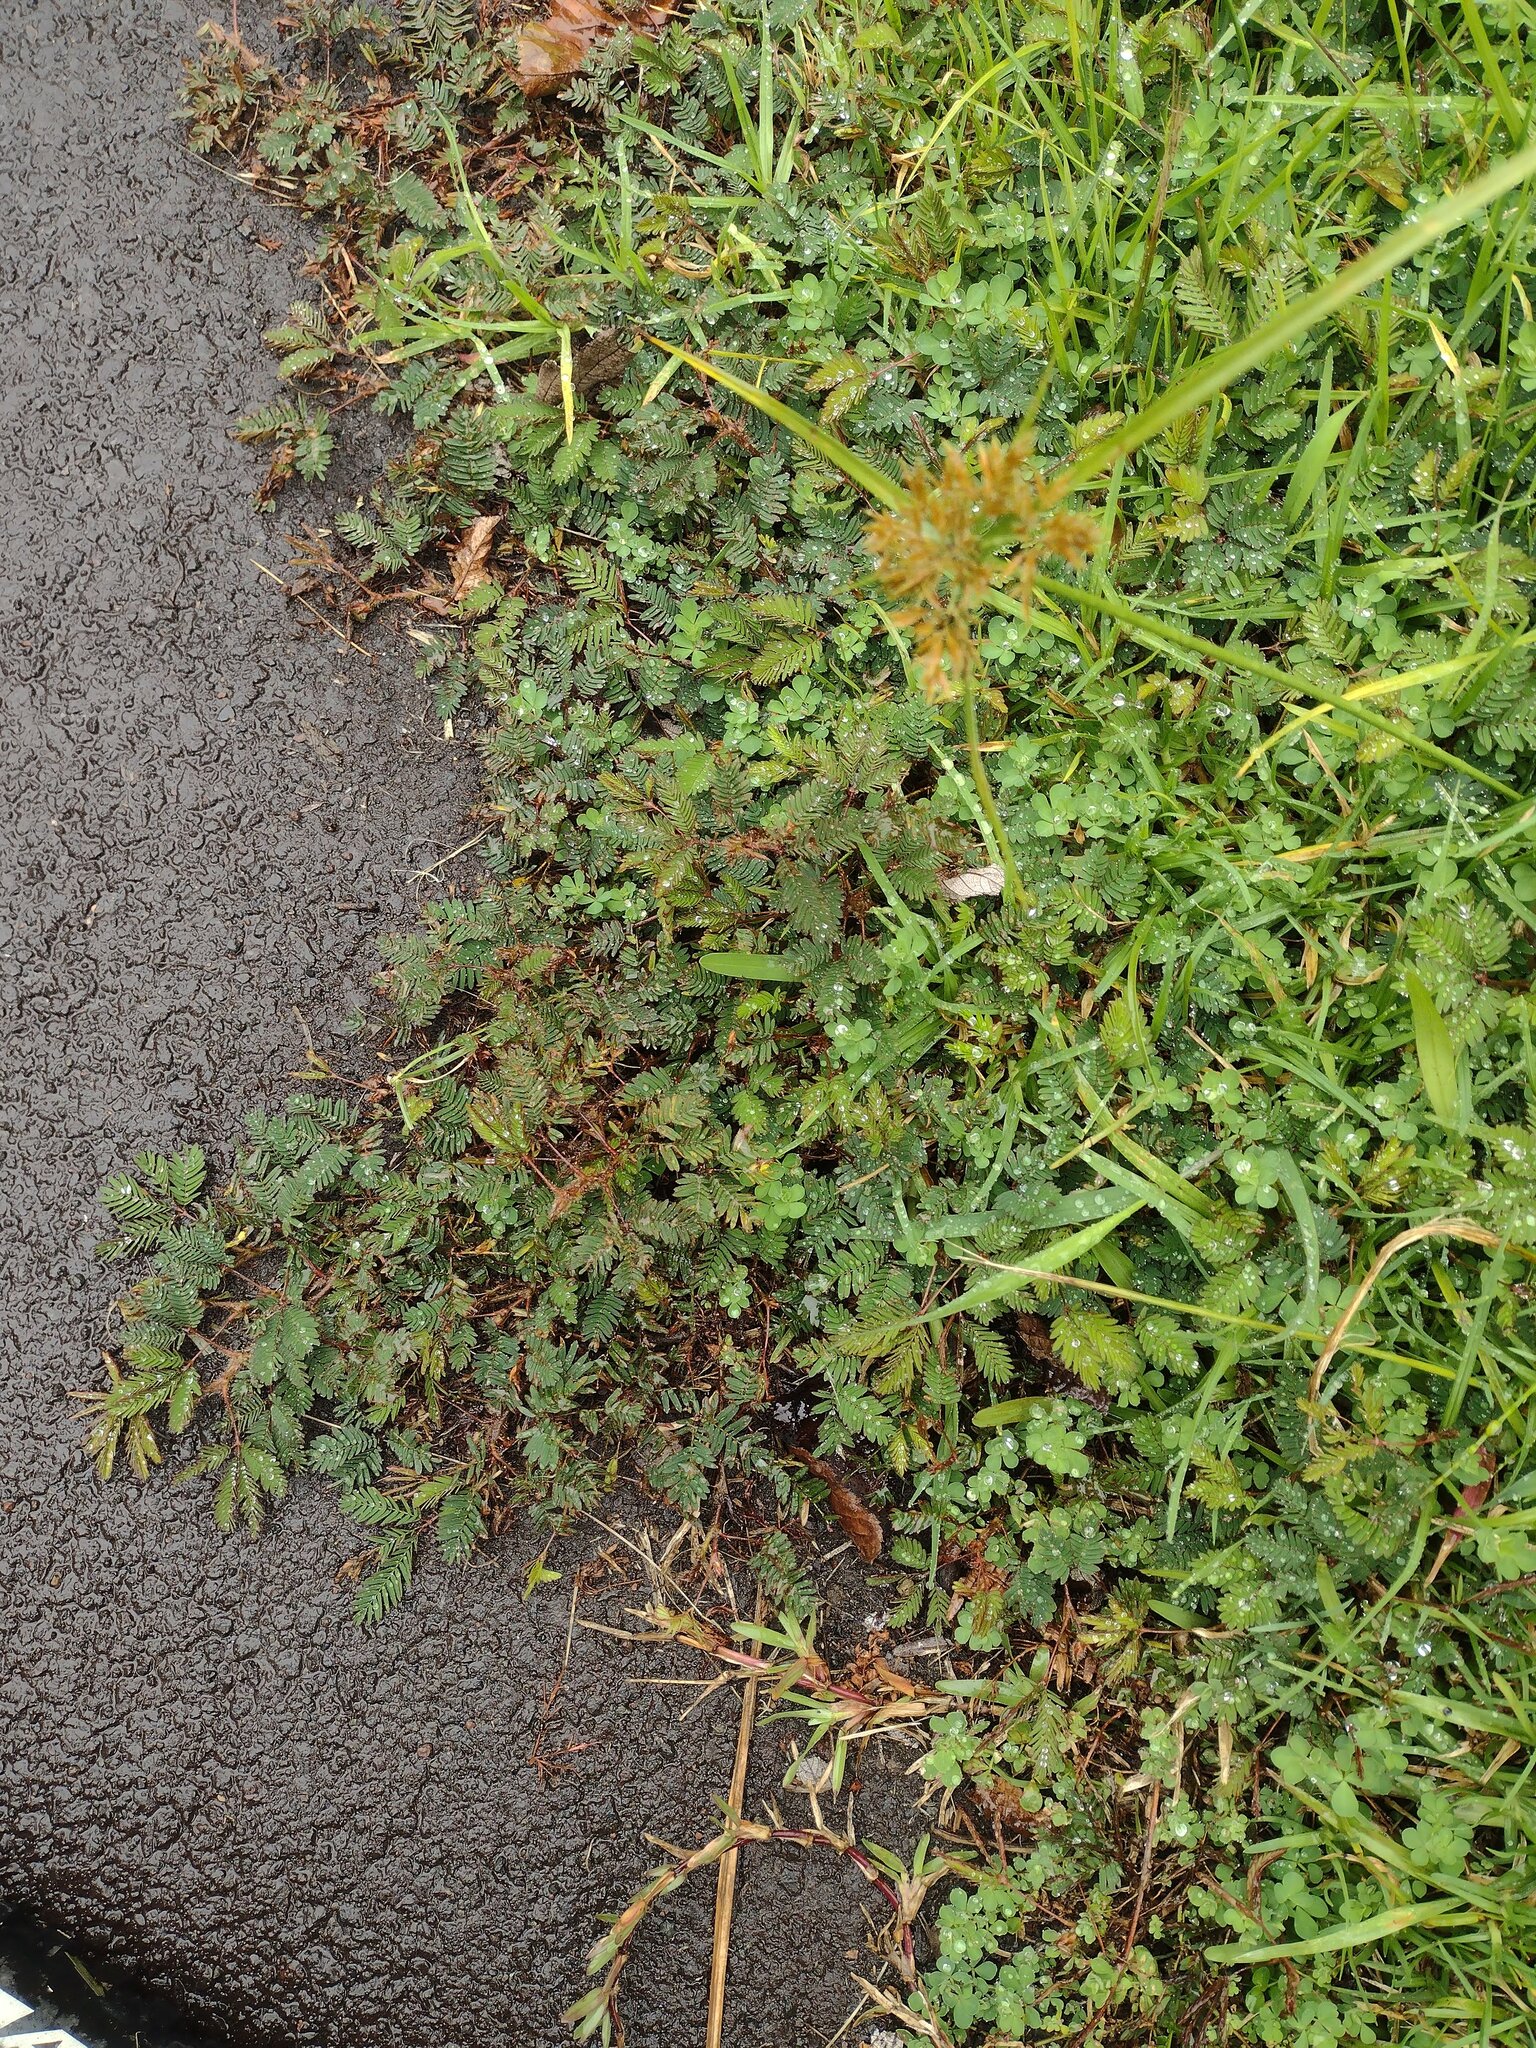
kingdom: Plantae
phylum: Tracheophyta
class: Magnoliopsida
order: Fabales
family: Fabaceae
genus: Mimosa
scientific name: Mimosa pudica
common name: Sensitive plant
